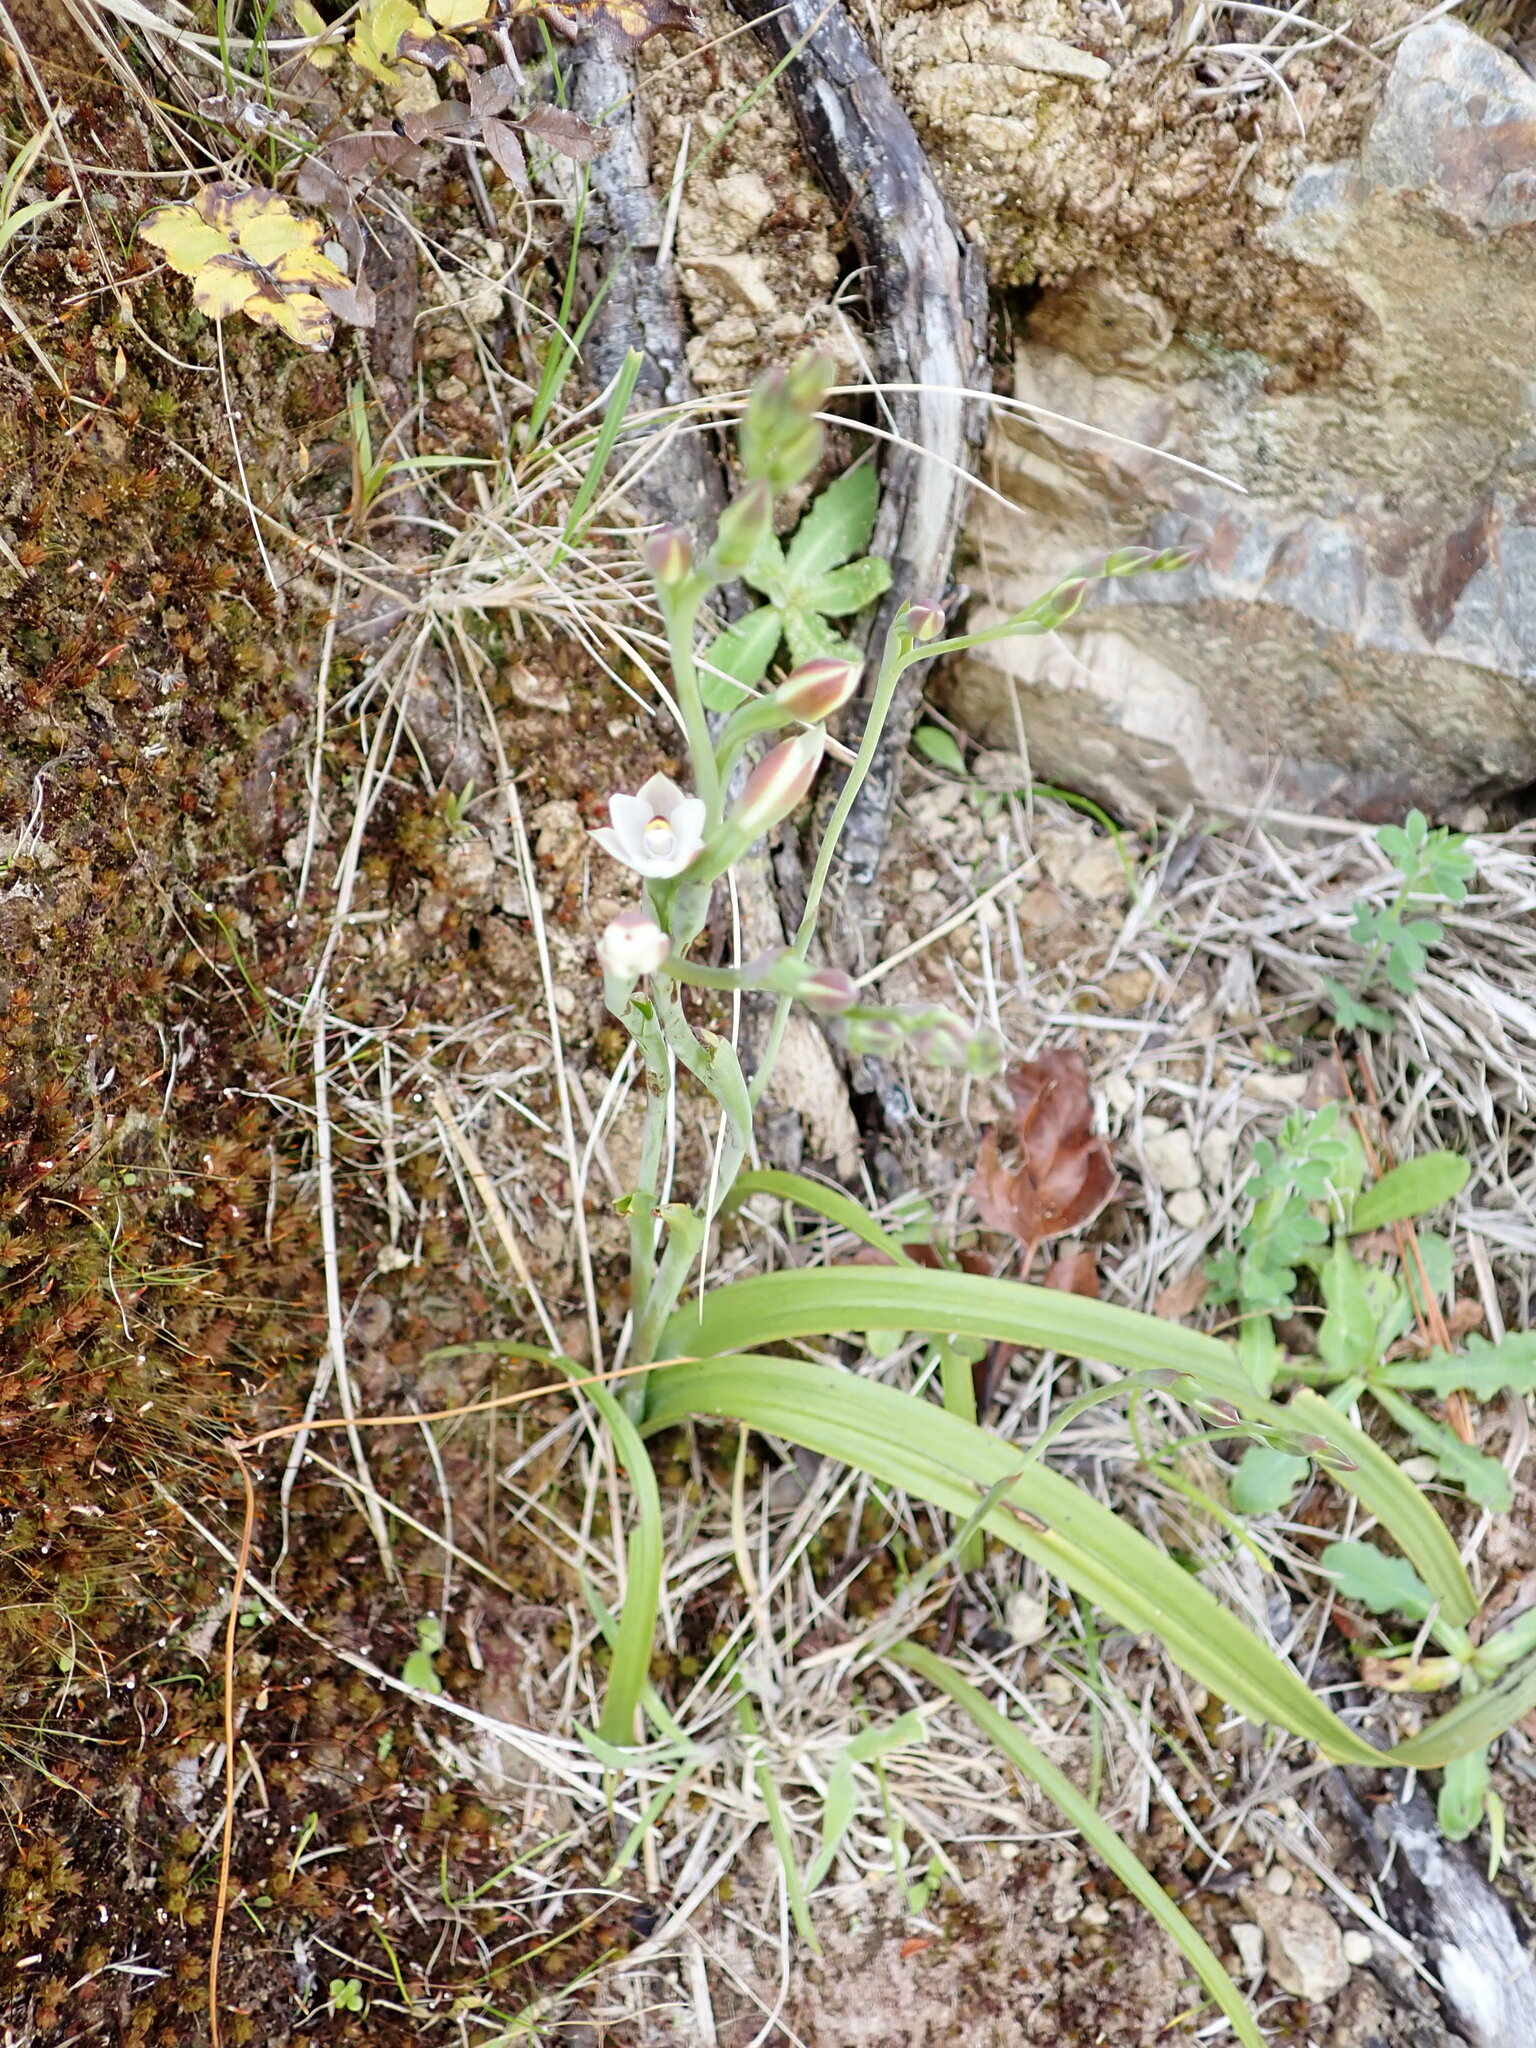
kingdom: Plantae
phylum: Tracheophyta
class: Liliopsida
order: Asparagales
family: Orchidaceae
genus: Thelymitra
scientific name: Thelymitra longifolia
